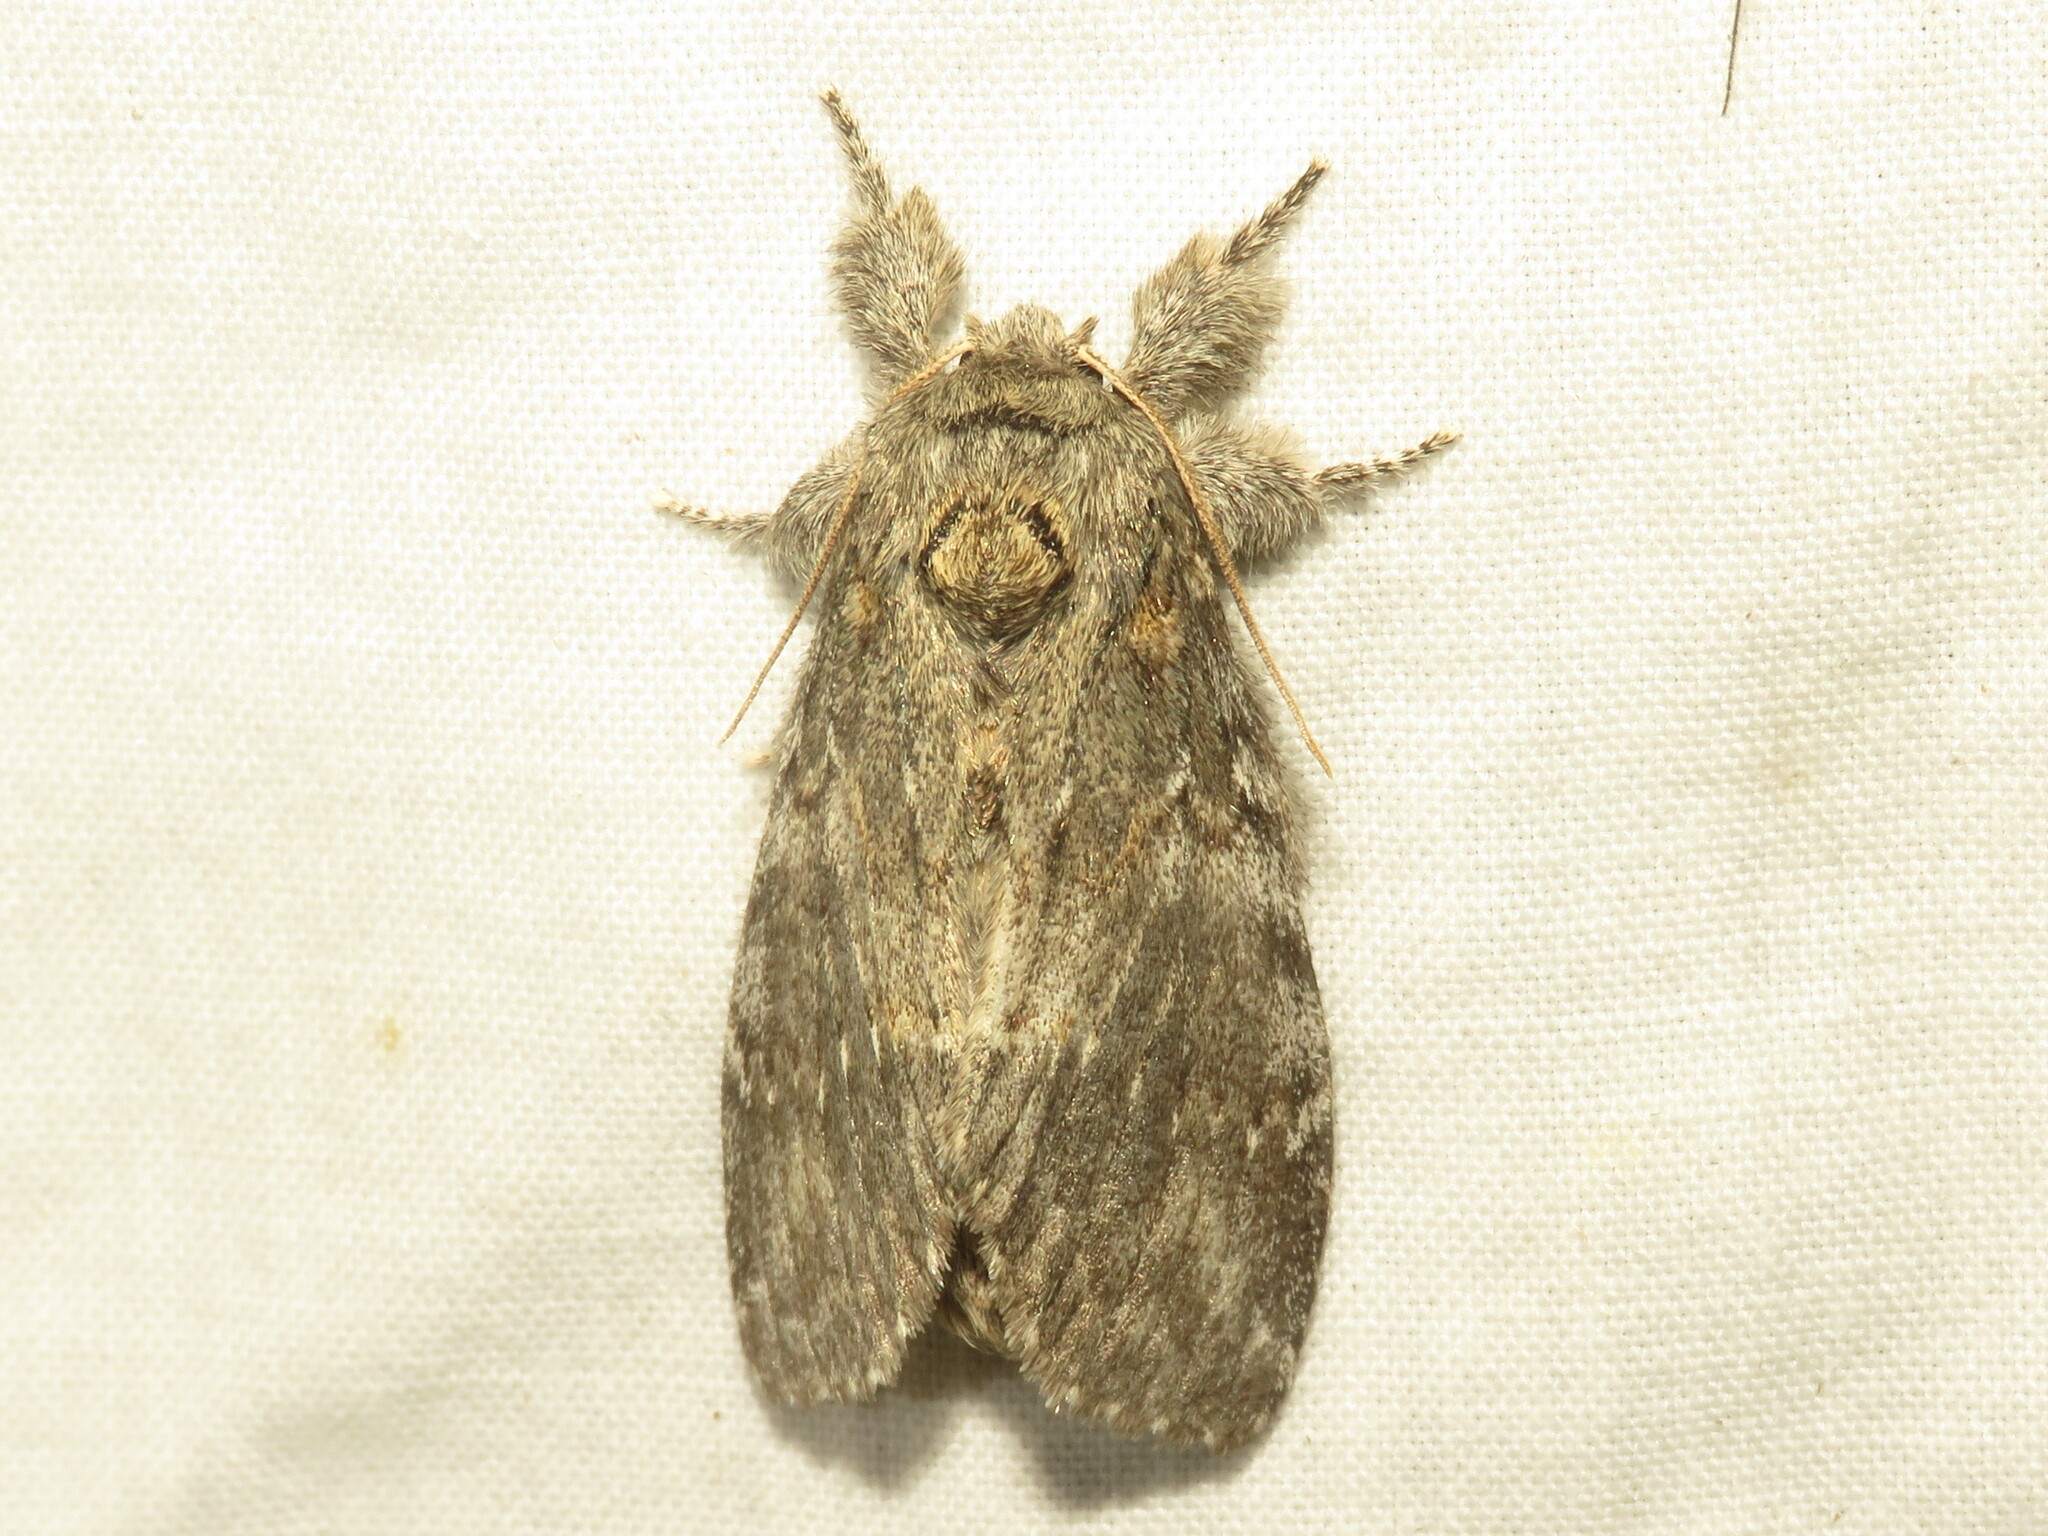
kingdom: Animalia
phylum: Arthropoda
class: Insecta
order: Lepidoptera
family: Notodontidae
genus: Peridea
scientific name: Peridea angulosa
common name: Angulose prominent
